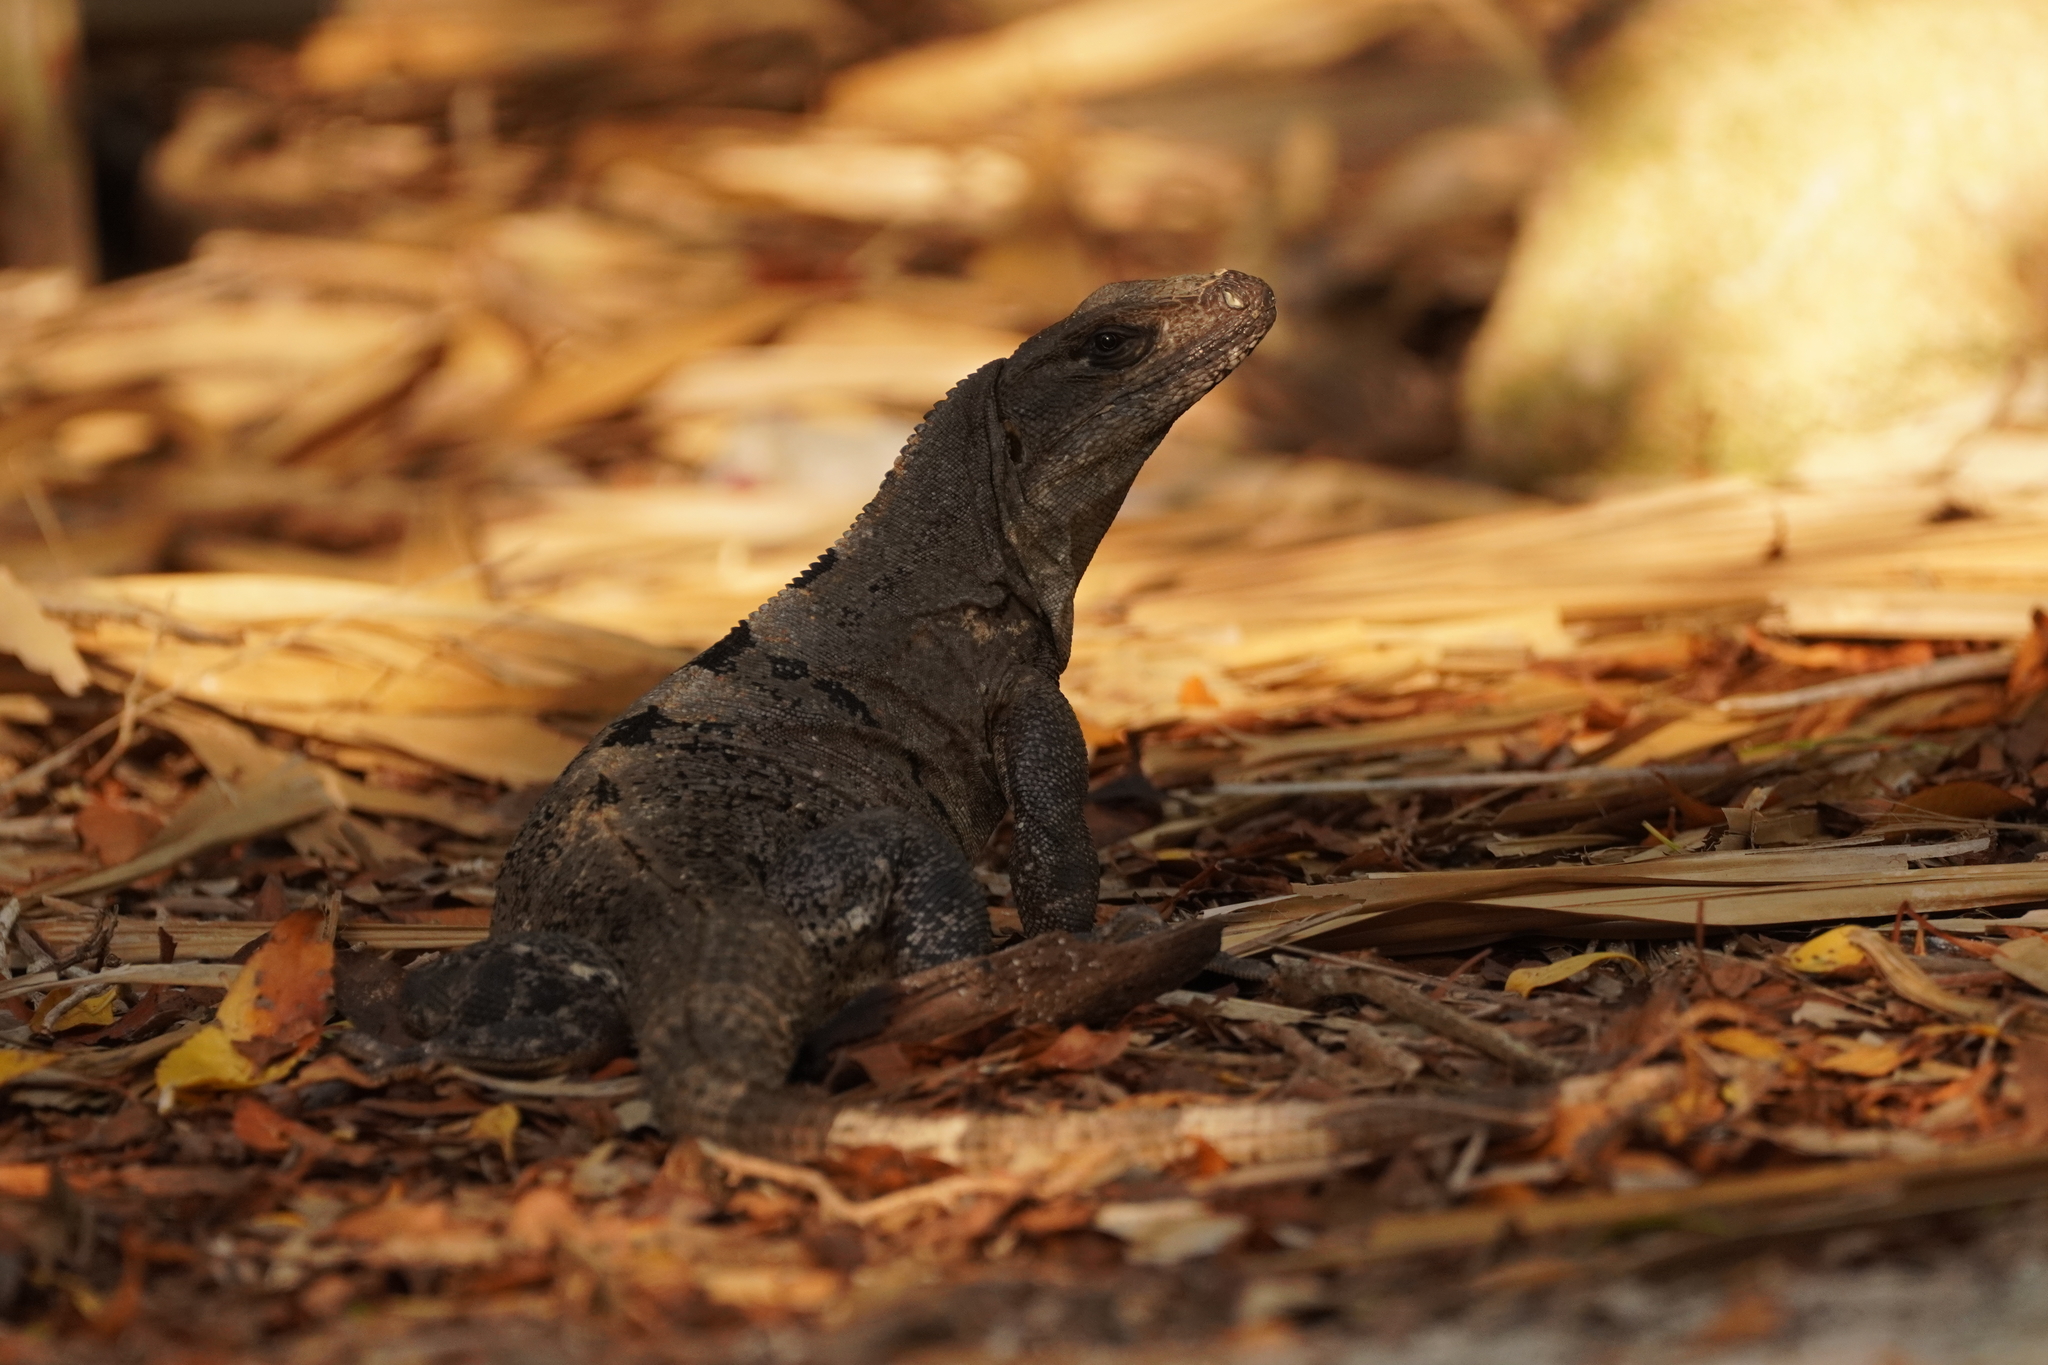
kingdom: Animalia
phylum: Chordata
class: Squamata
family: Iguanidae
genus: Ctenosaura
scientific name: Ctenosaura similis
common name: Black spiny-tailed iguana
